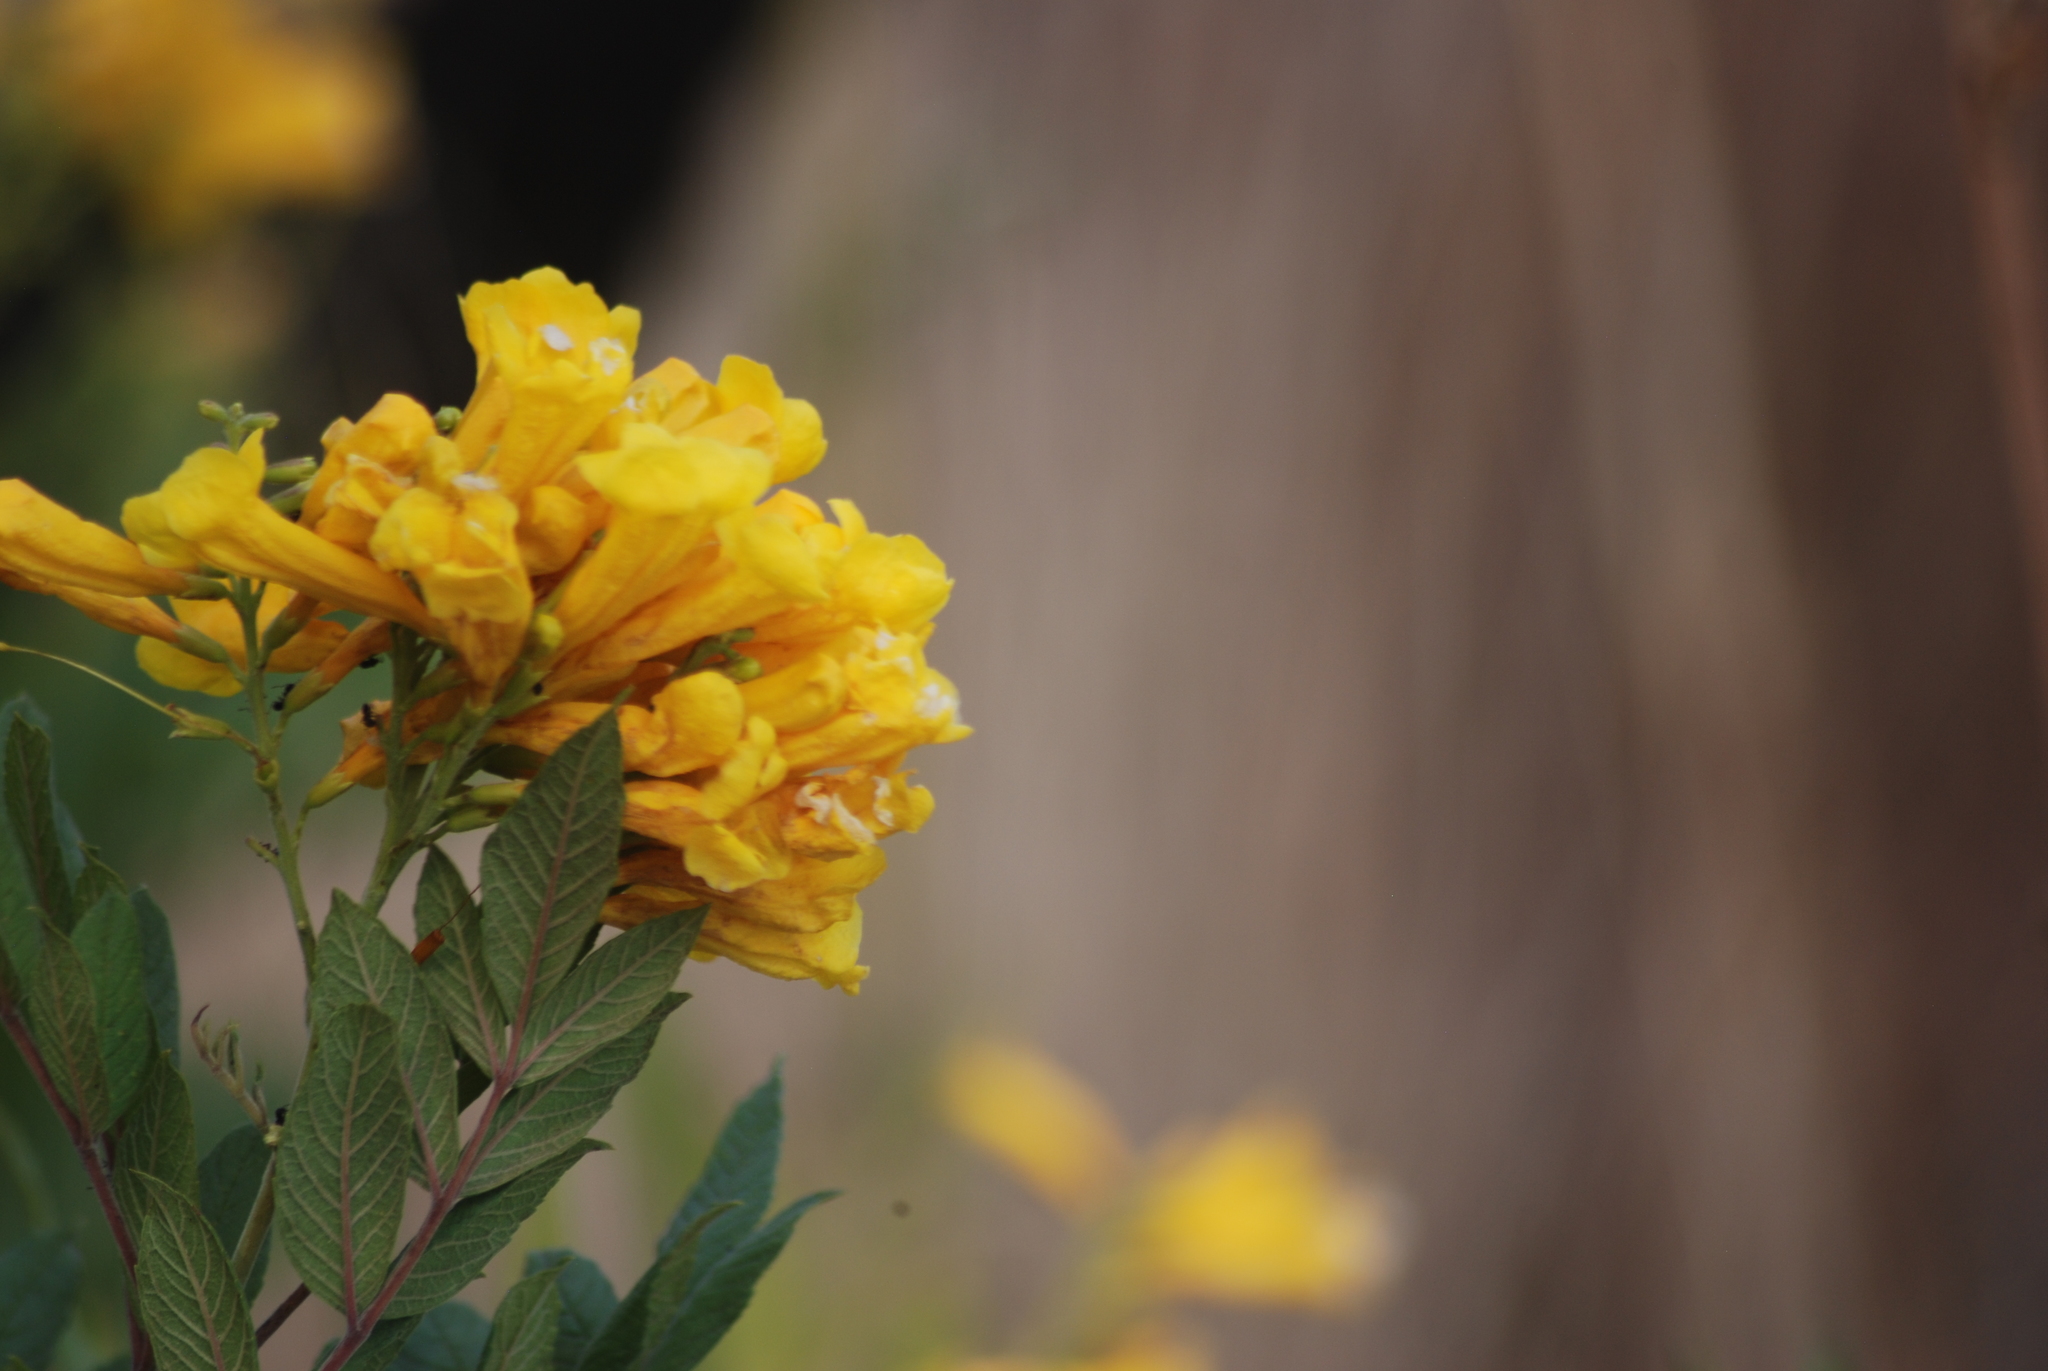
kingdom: Plantae
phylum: Tracheophyta
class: Magnoliopsida
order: Lamiales
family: Bignoniaceae
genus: Tecoma
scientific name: Tecoma stans
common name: Yellow trumpetbush
